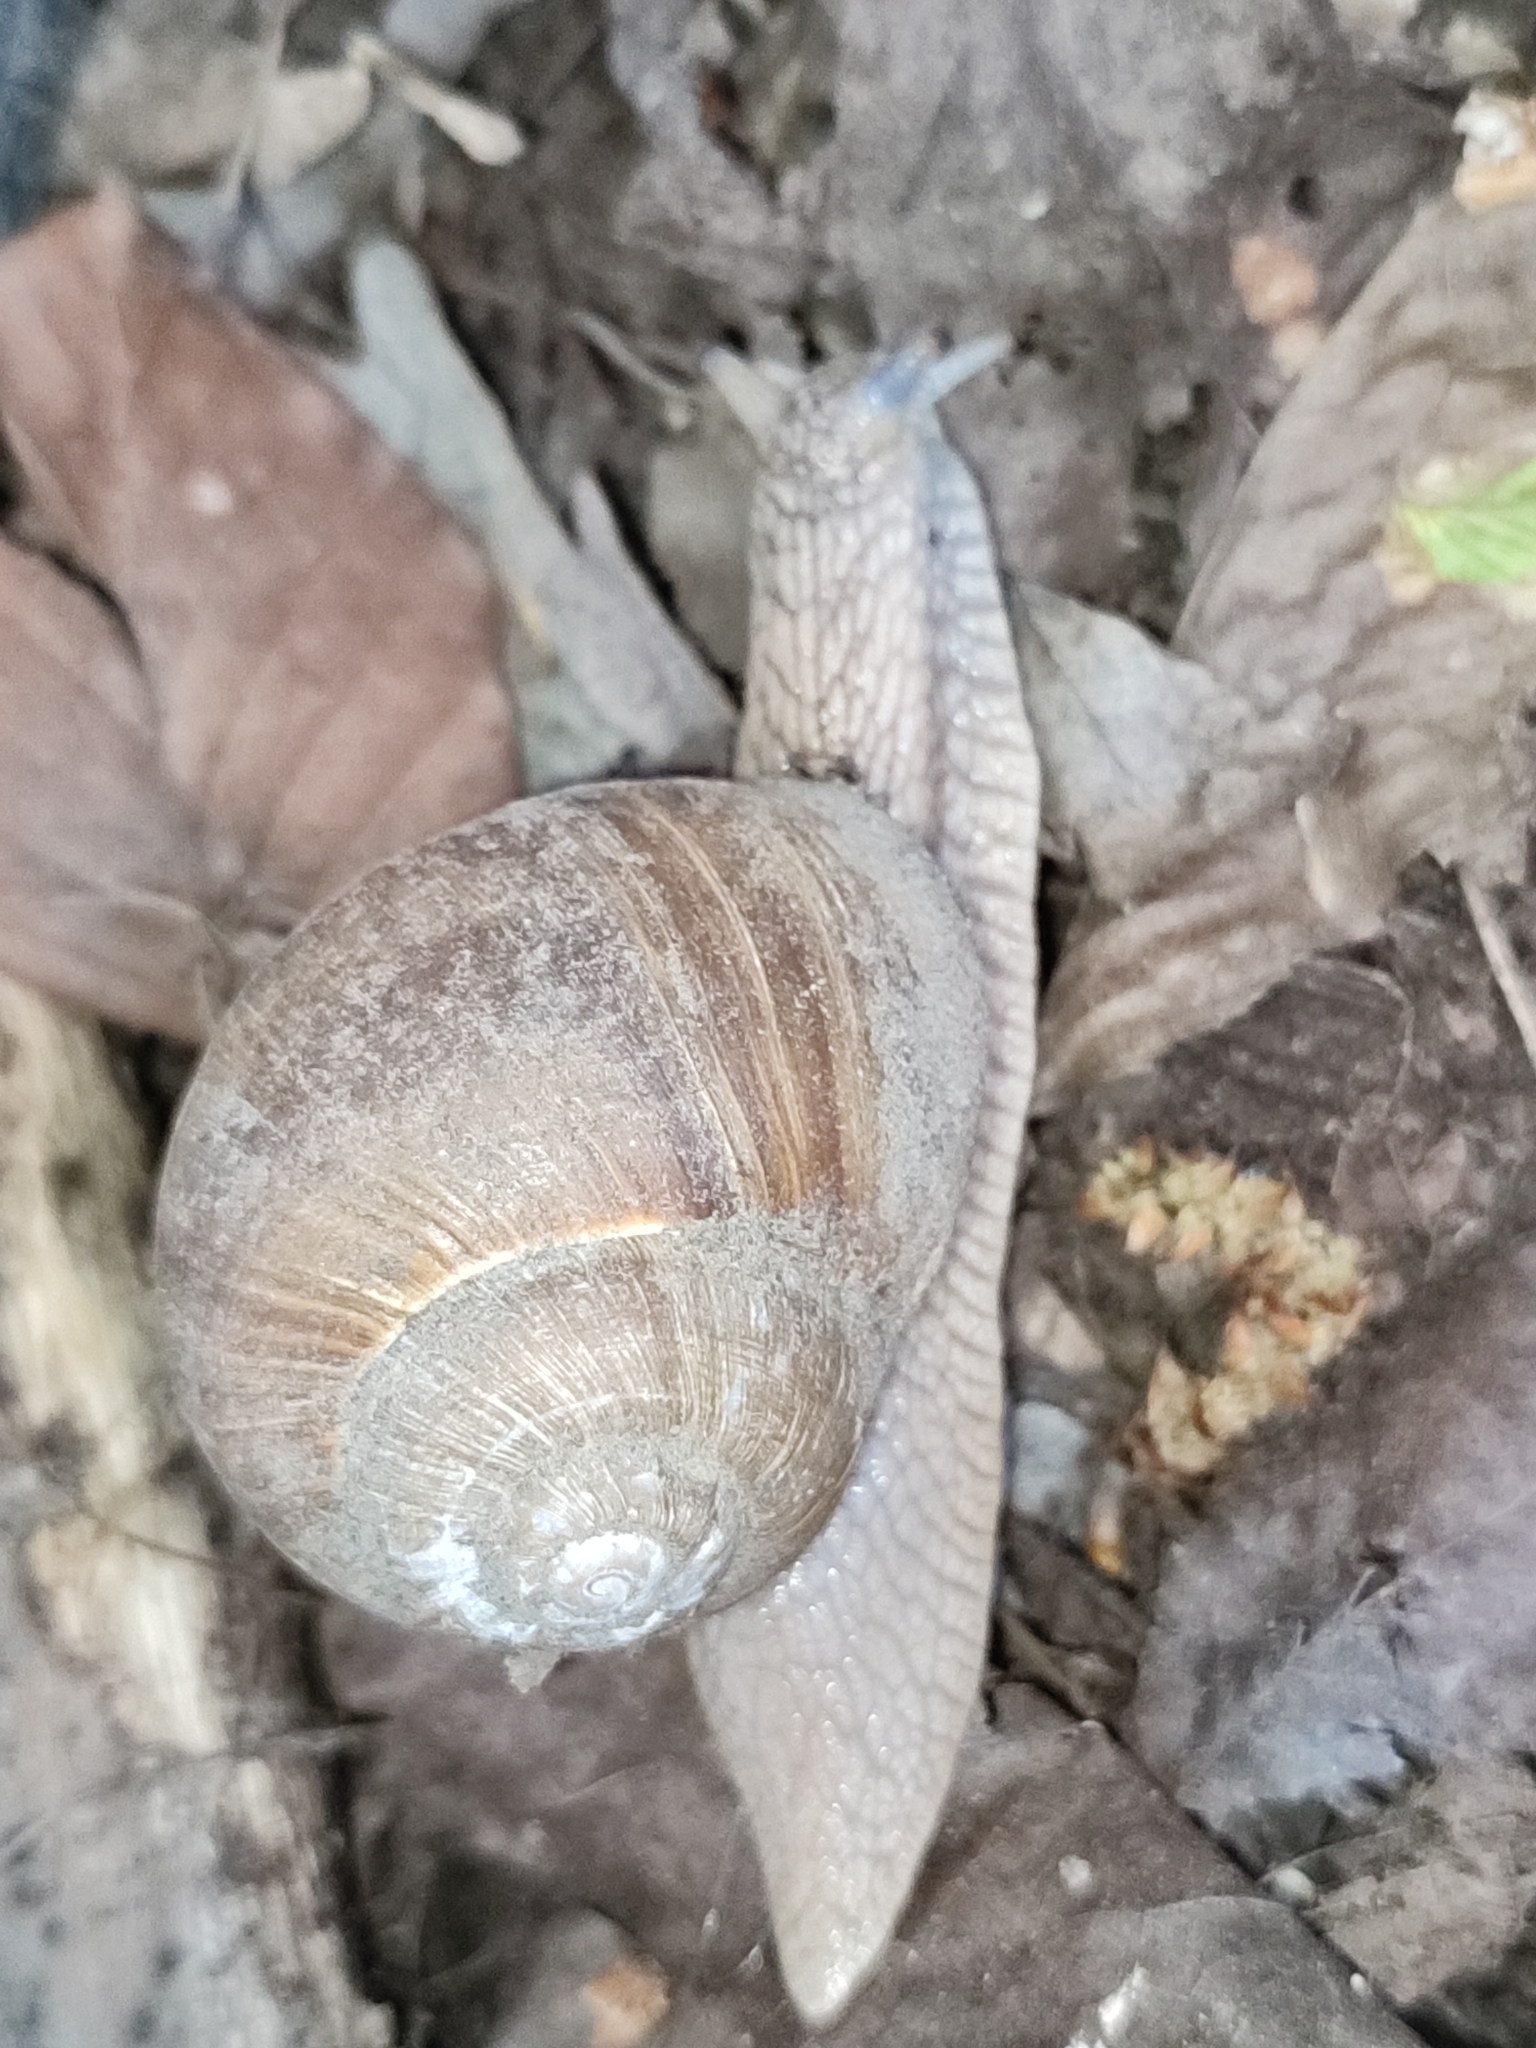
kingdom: Animalia
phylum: Mollusca
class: Gastropoda
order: Stylommatophora
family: Helicidae
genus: Helix
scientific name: Helix pomatia
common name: Roman snail
